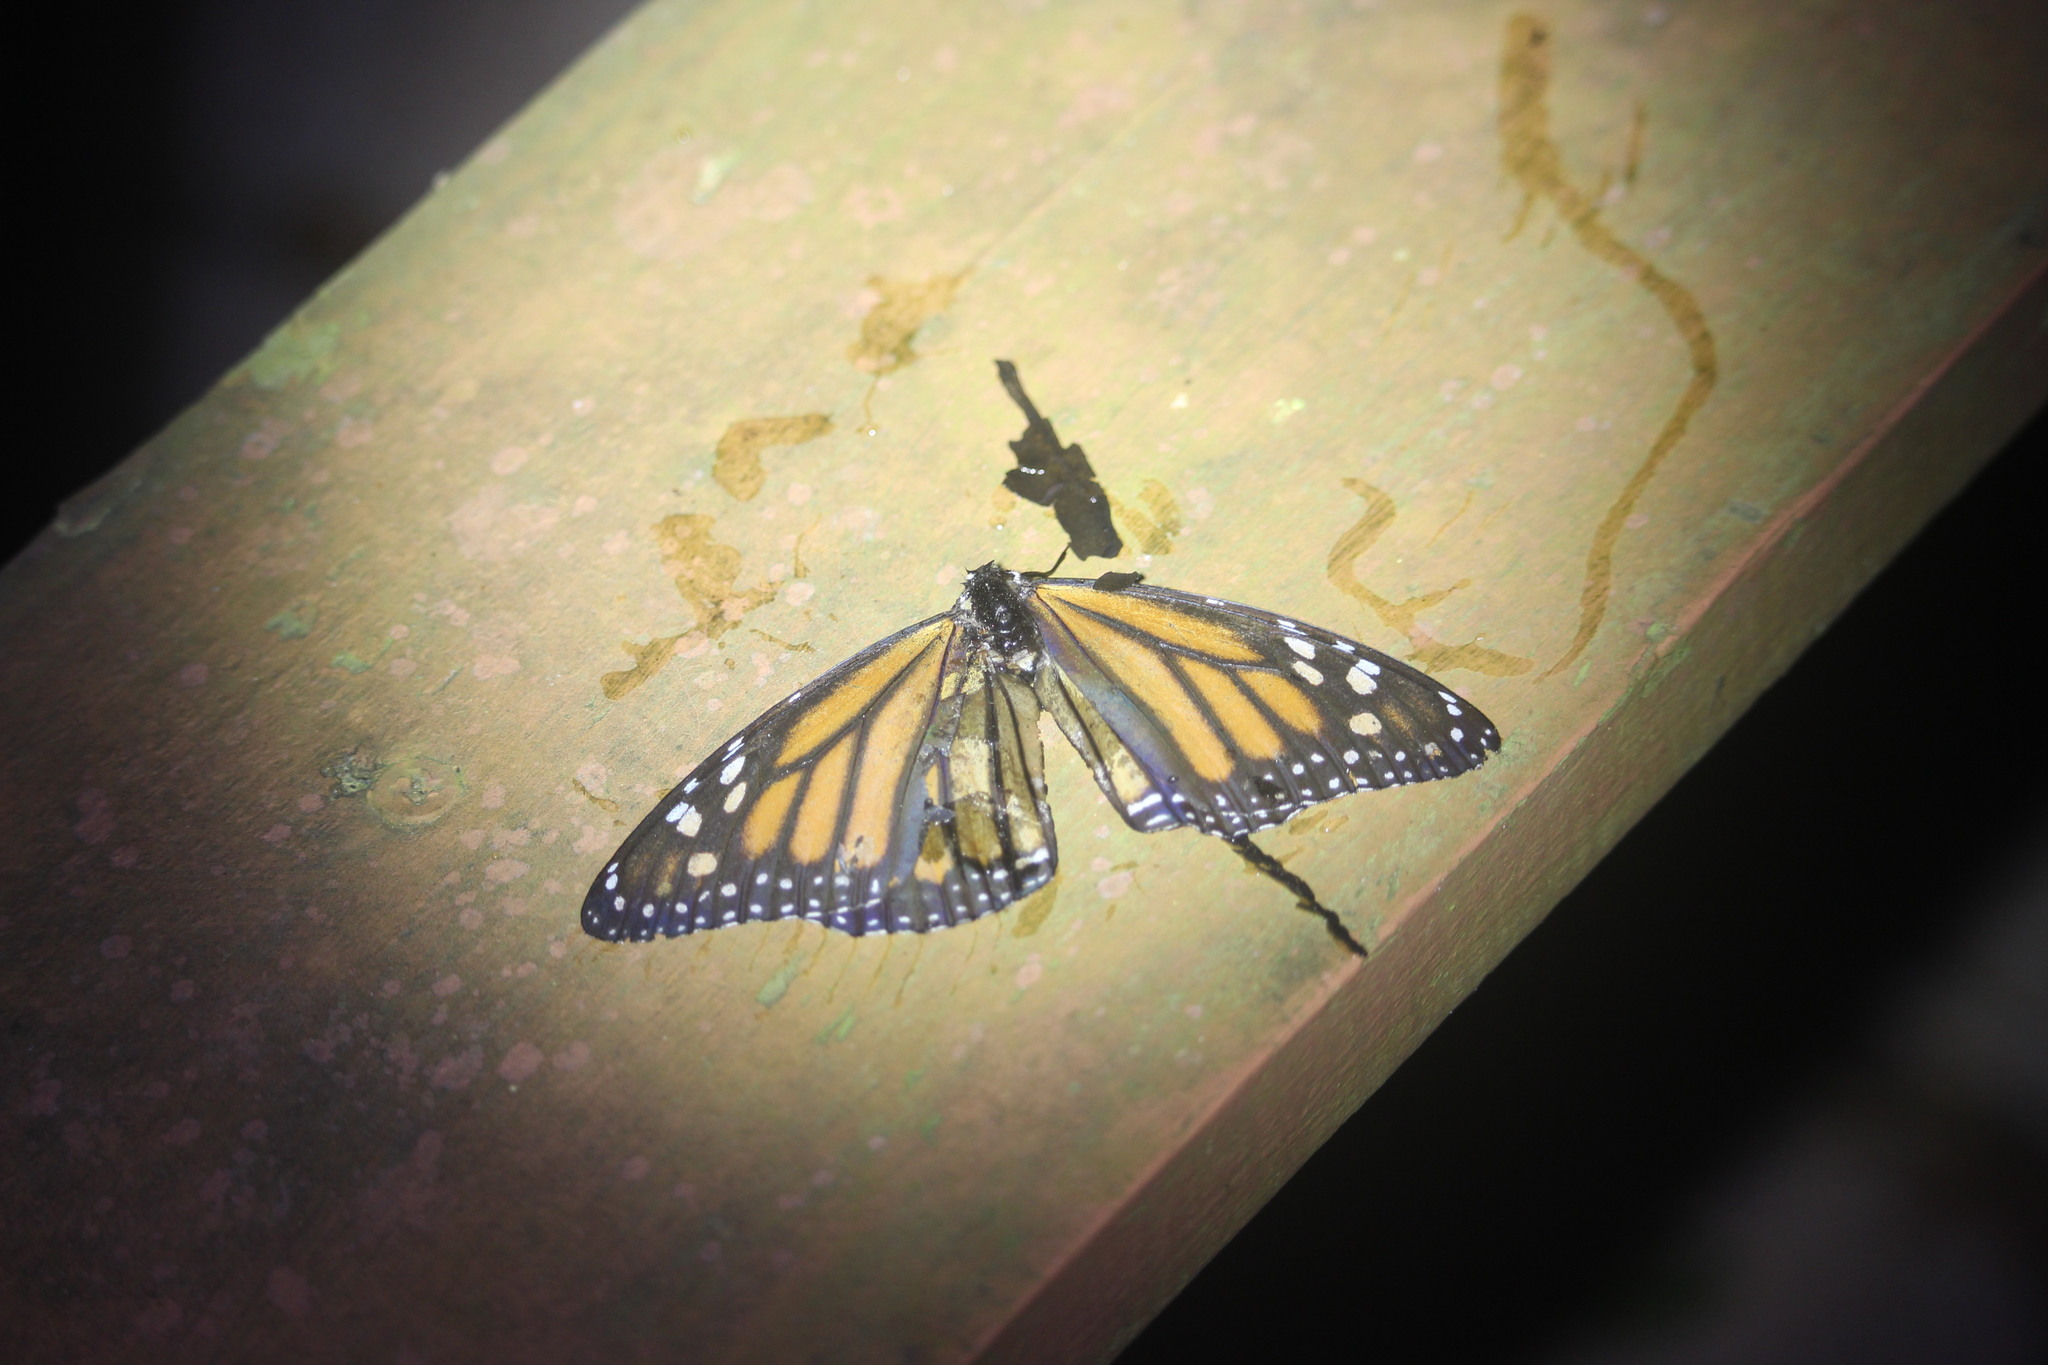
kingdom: Animalia
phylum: Arthropoda
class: Insecta
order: Lepidoptera
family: Nymphalidae
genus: Danaus
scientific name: Danaus plexippus
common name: Monarch
